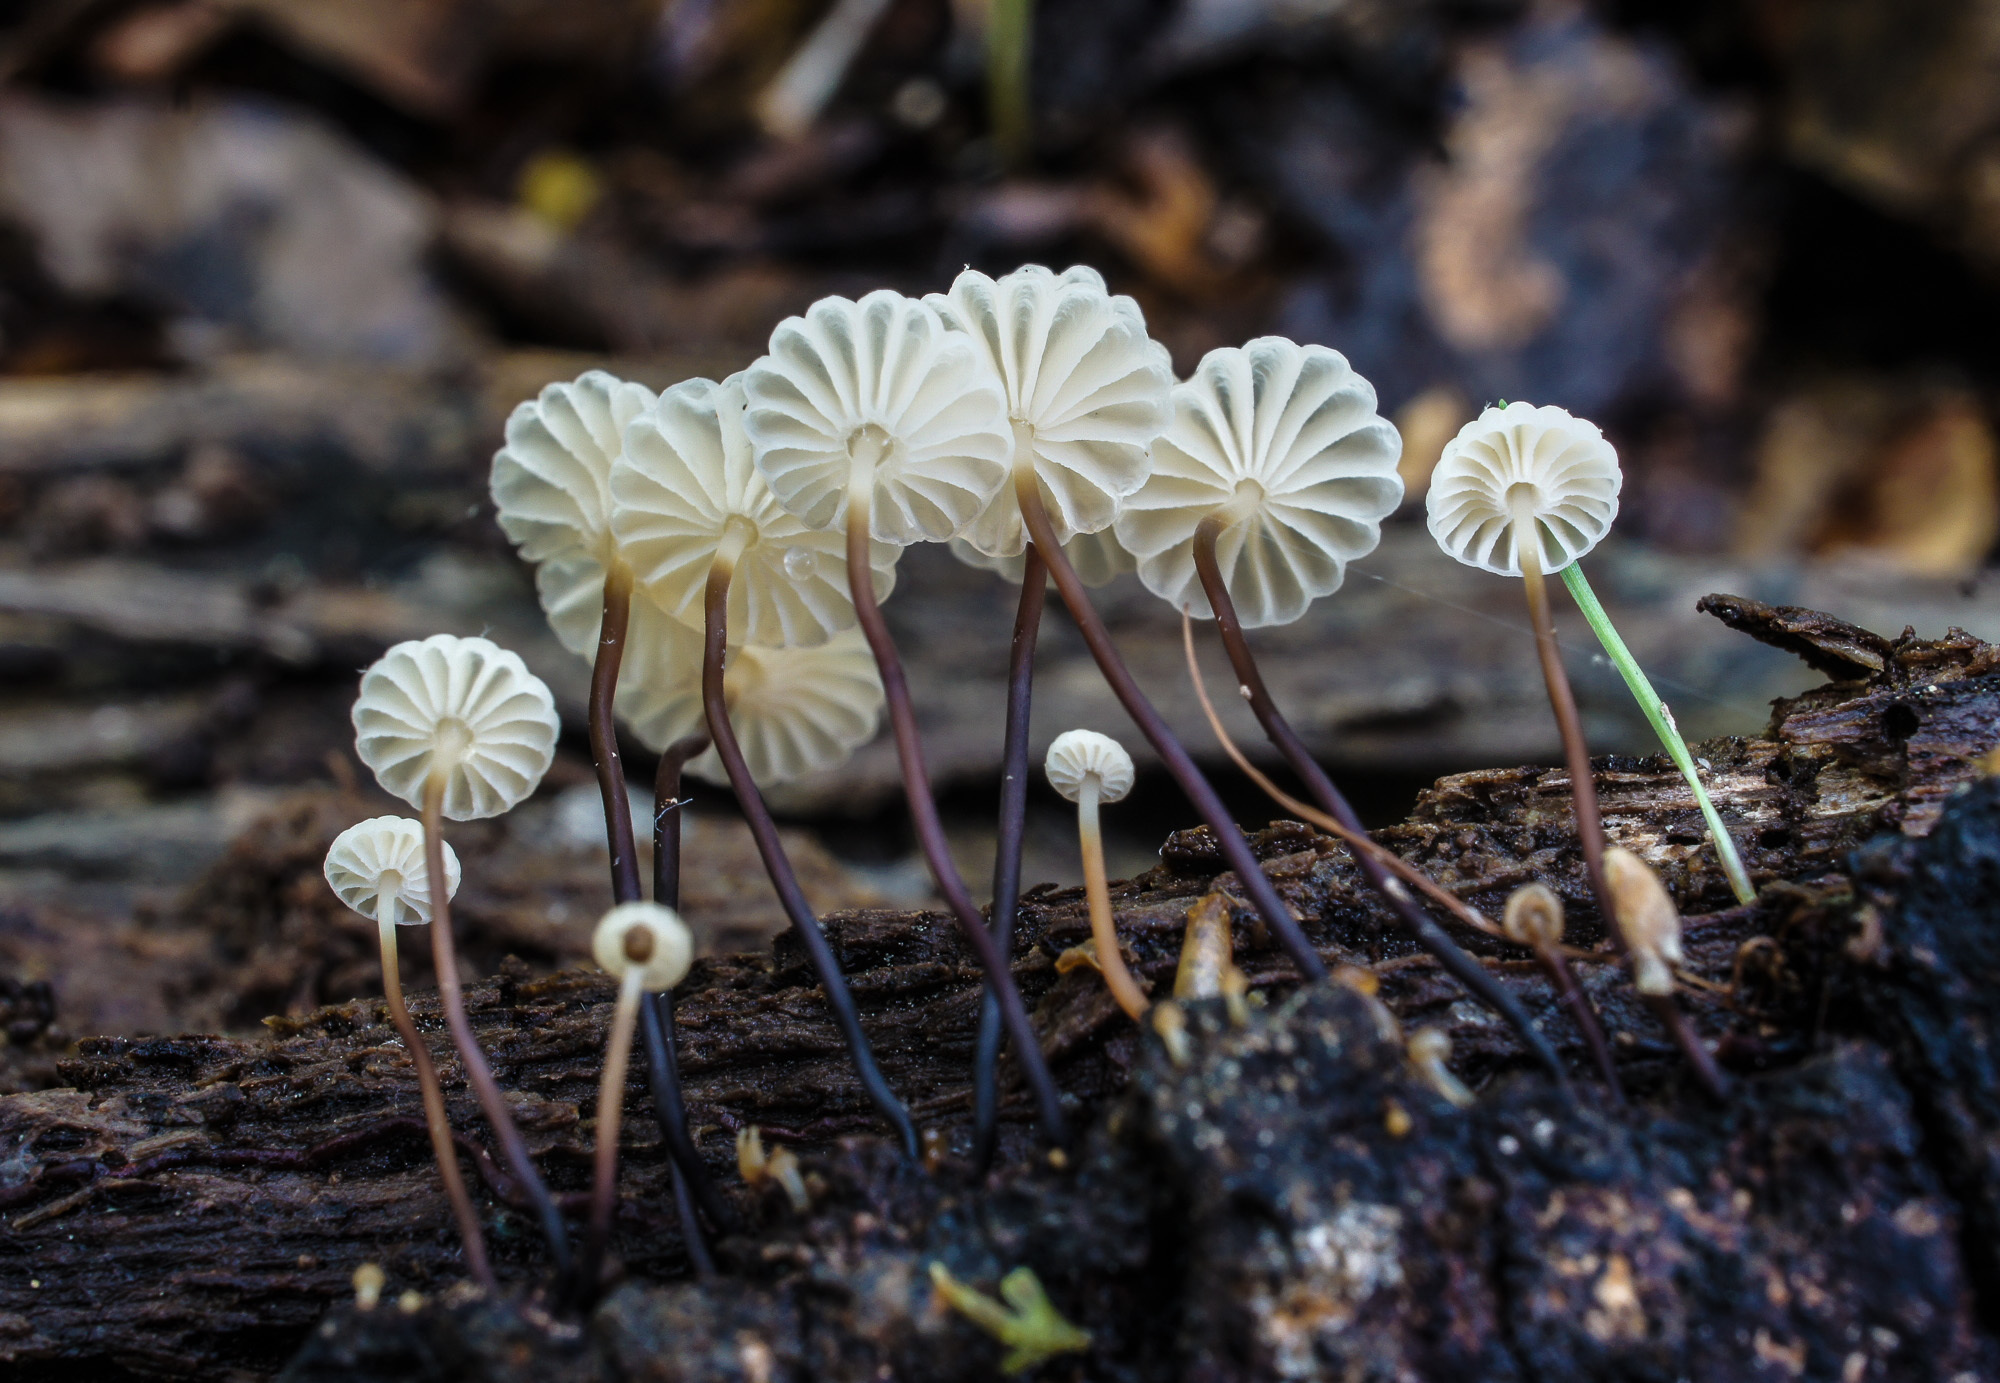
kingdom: Fungi
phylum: Basidiomycota
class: Agaricomycetes
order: Agaricales
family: Marasmiaceae
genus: Marasmius
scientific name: Marasmius rotula
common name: Collared parachute
